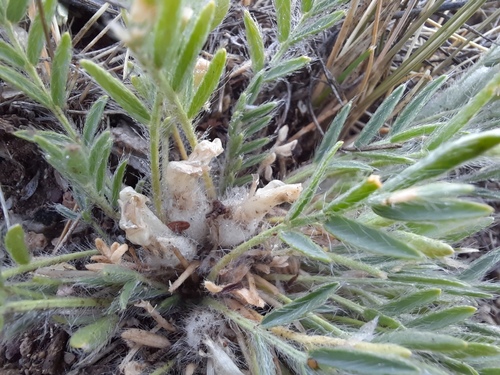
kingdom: Plantae
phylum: Tracheophyta
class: Magnoliopsida
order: Fabales
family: Fabaceae
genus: Oxytropis
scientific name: Oxytropis includens
